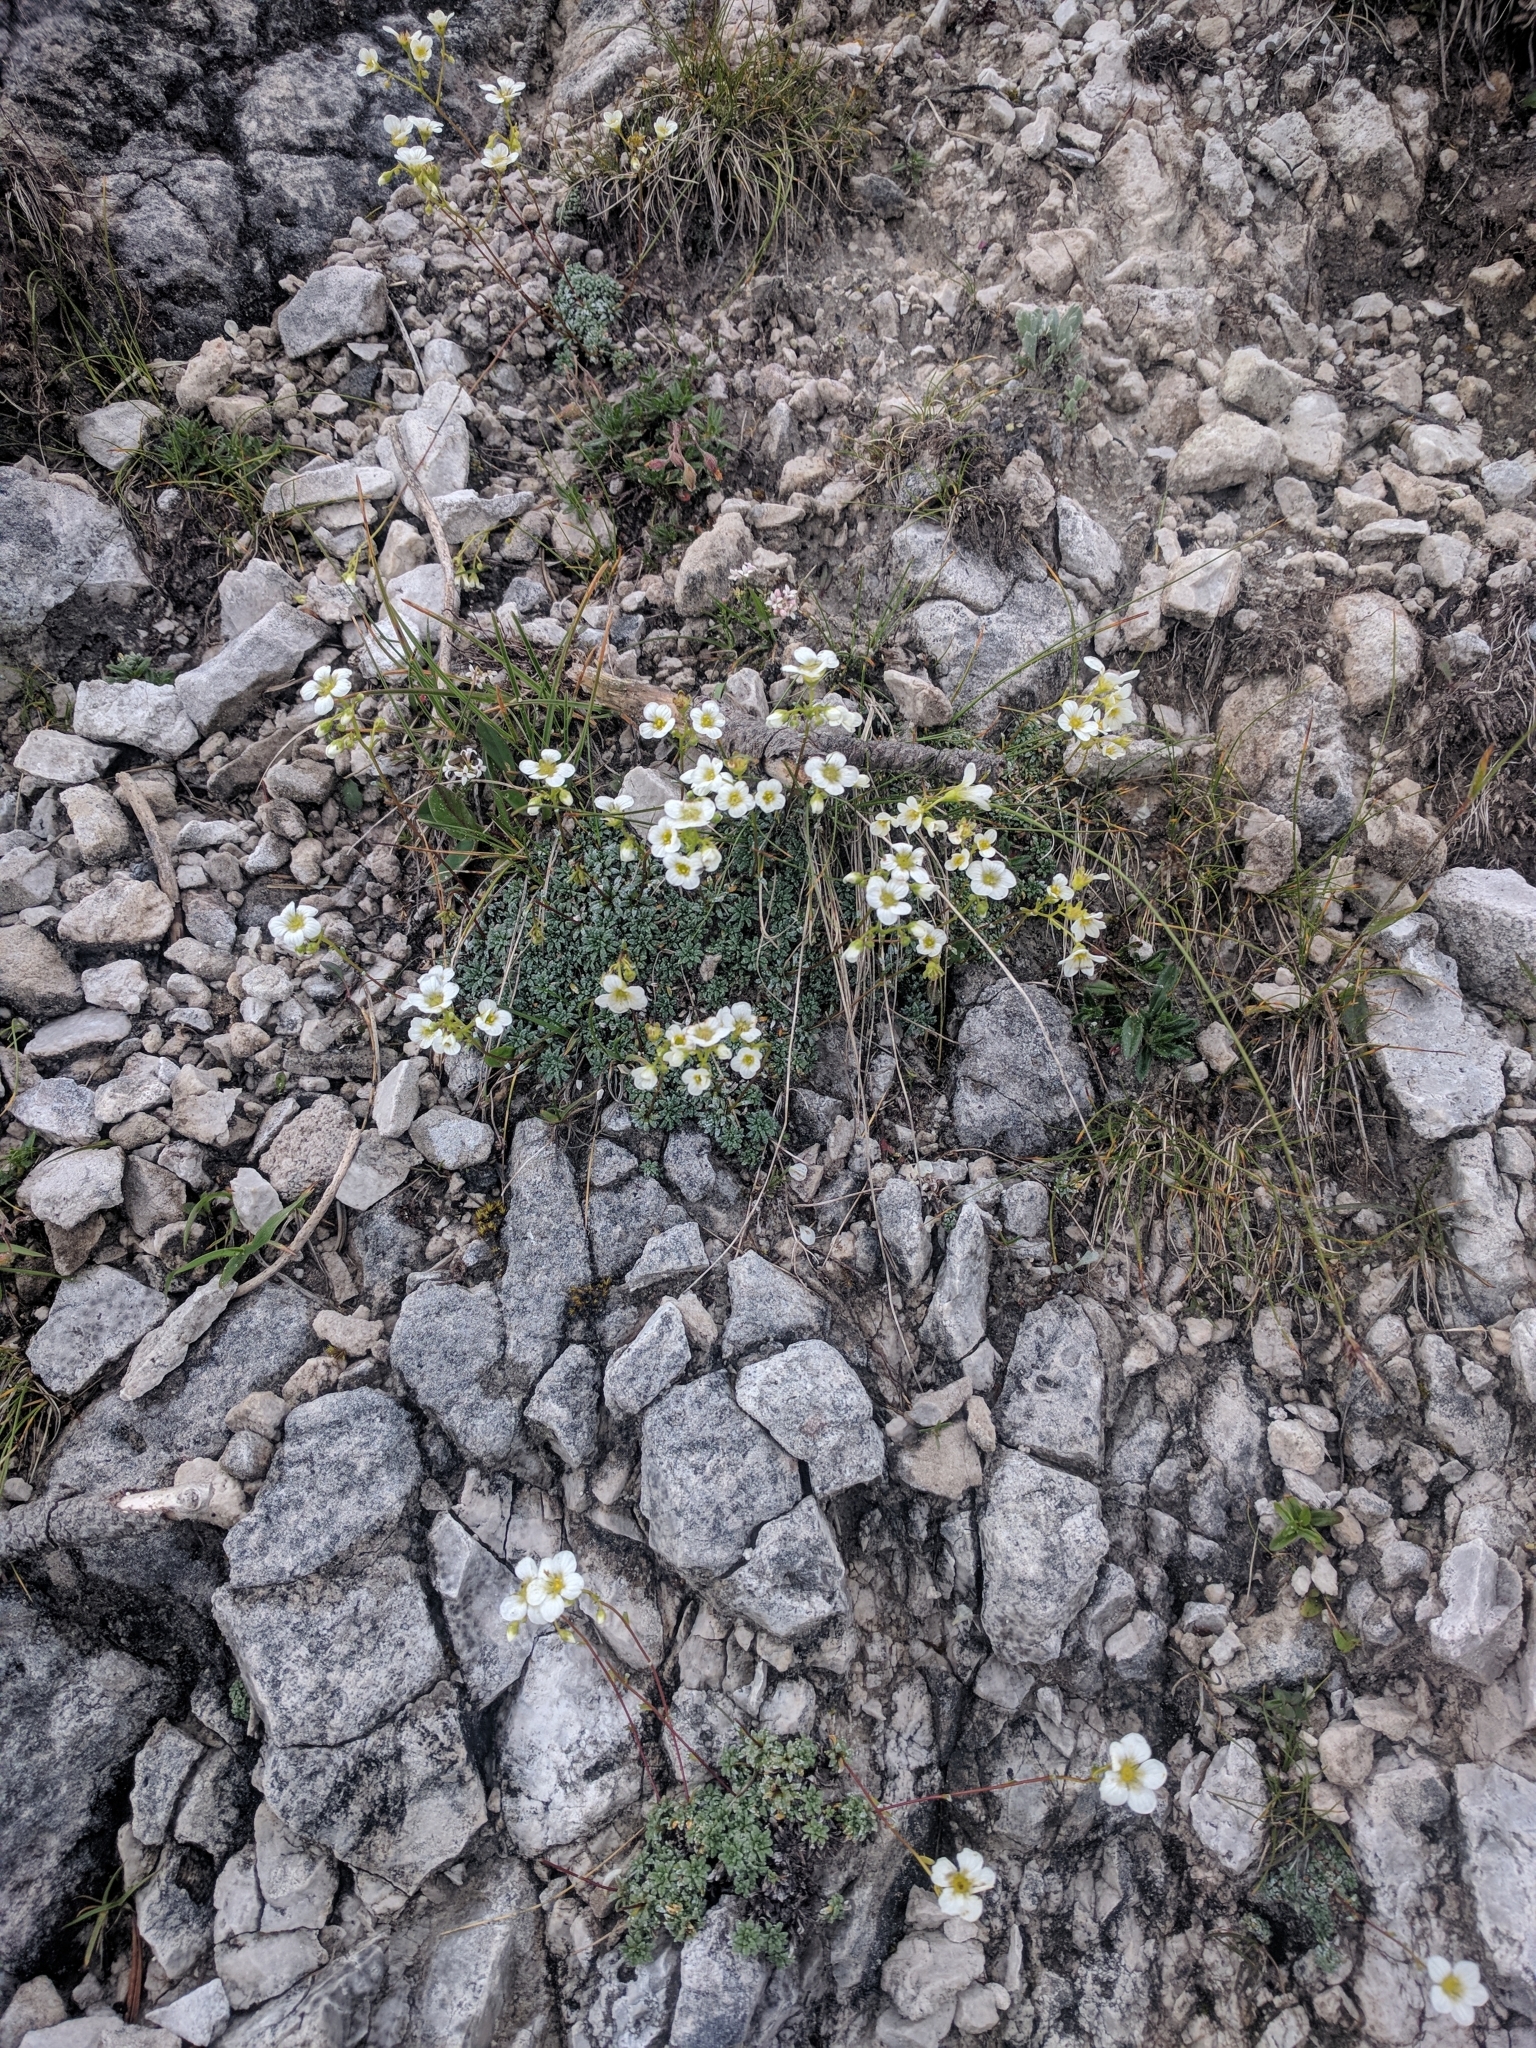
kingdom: Plantae
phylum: Tracheophyta
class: Magnoliopsida
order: Saxifragales
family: Saxifragaceae
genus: Saxifraga
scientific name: Saxifraga caesia
